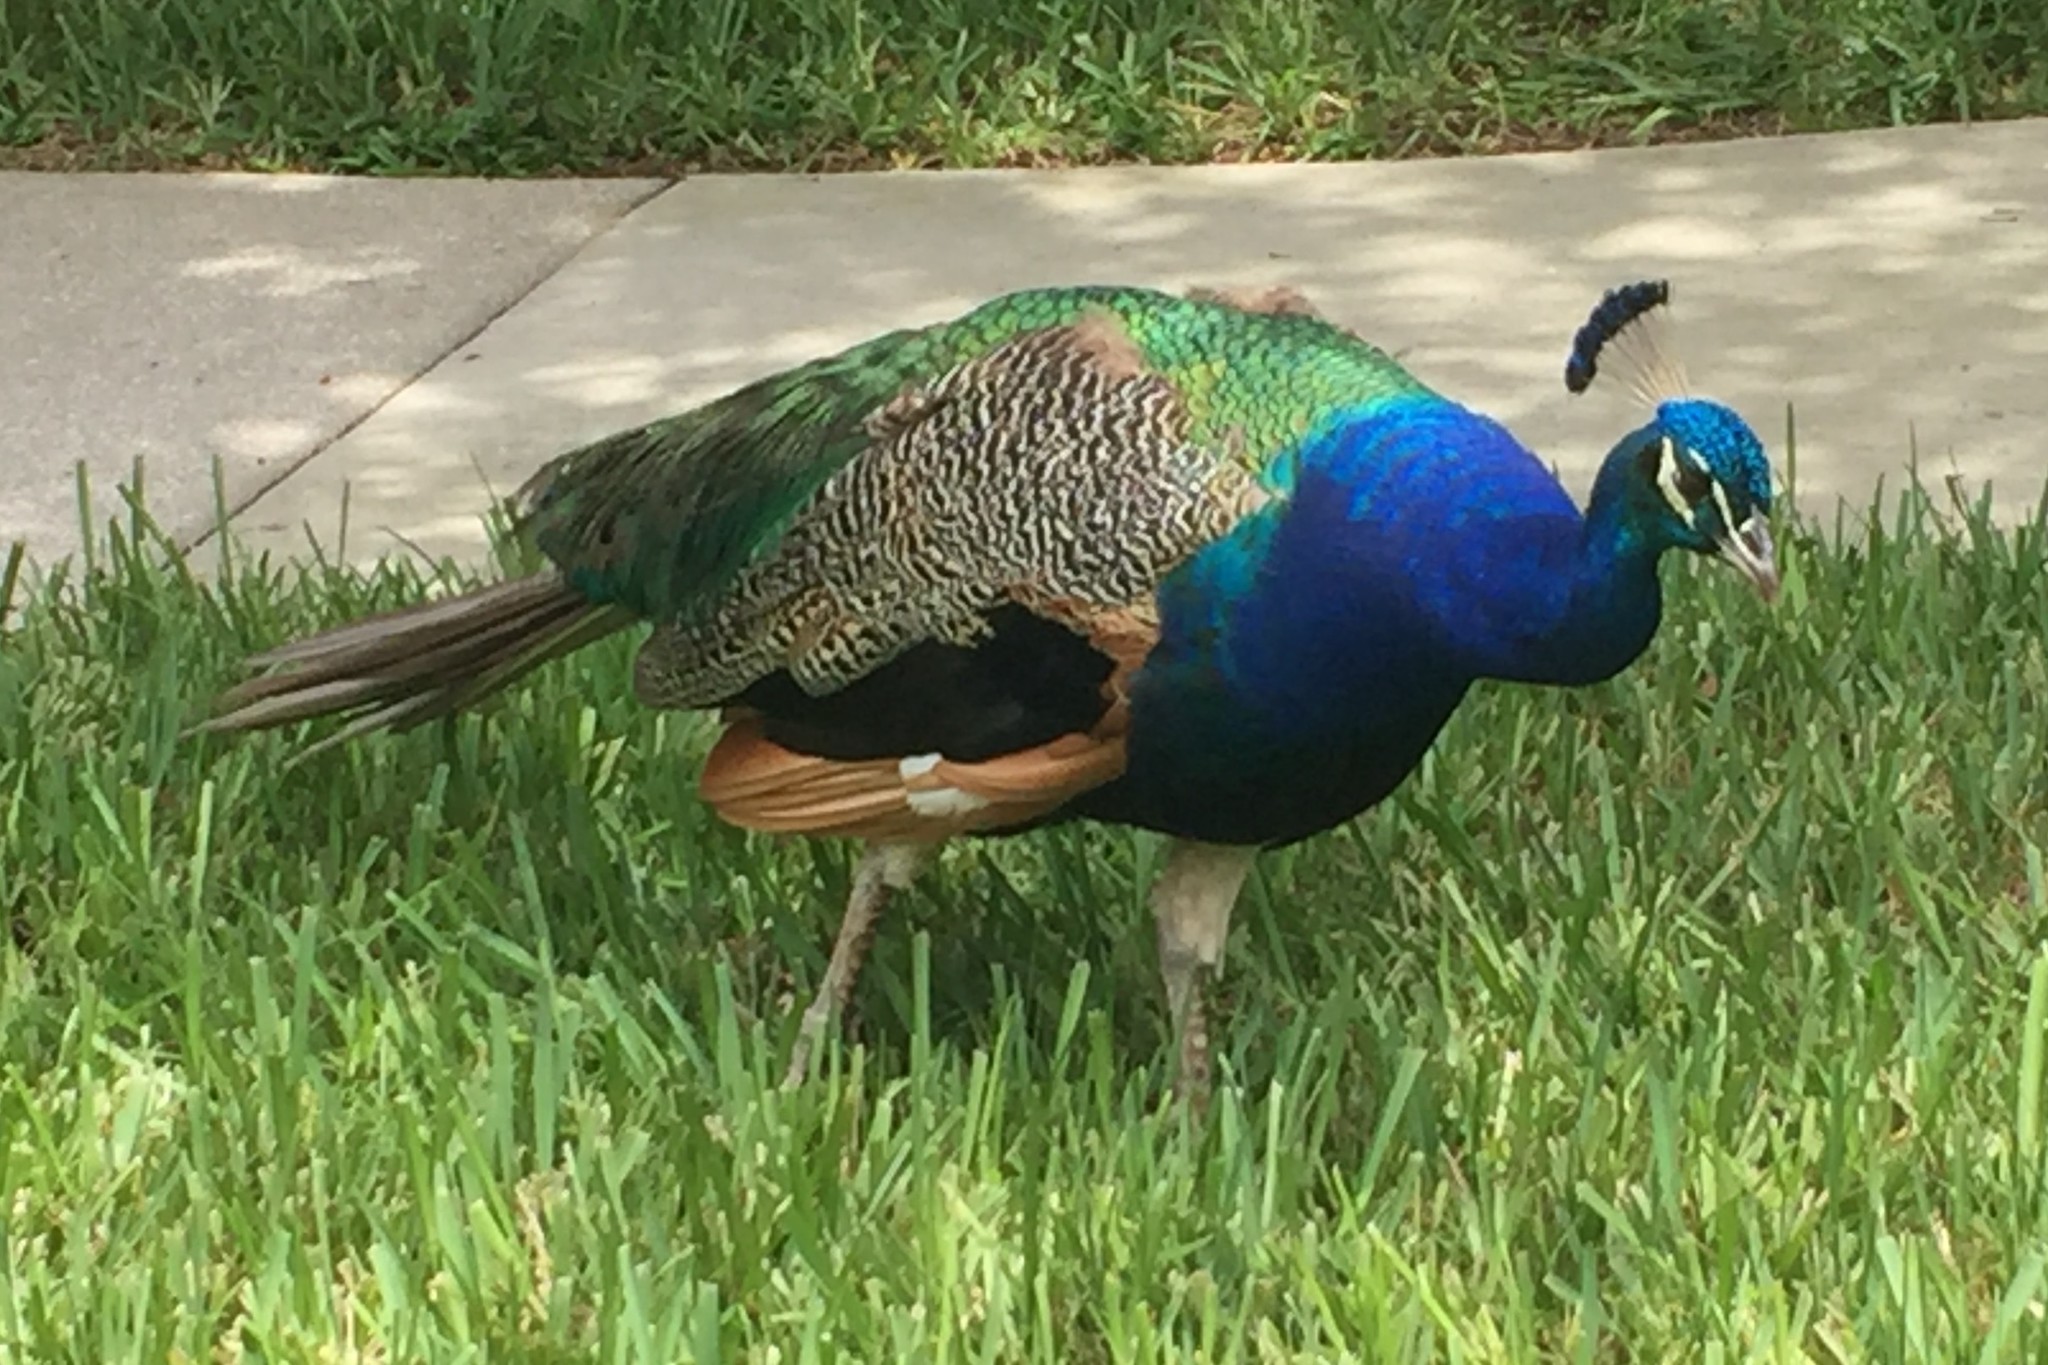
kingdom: Animalia
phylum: Chordata
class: Aves
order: Galliformes
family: Phasianidae
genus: Pavo
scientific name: Pavo cristatus
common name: Indian peafowl
